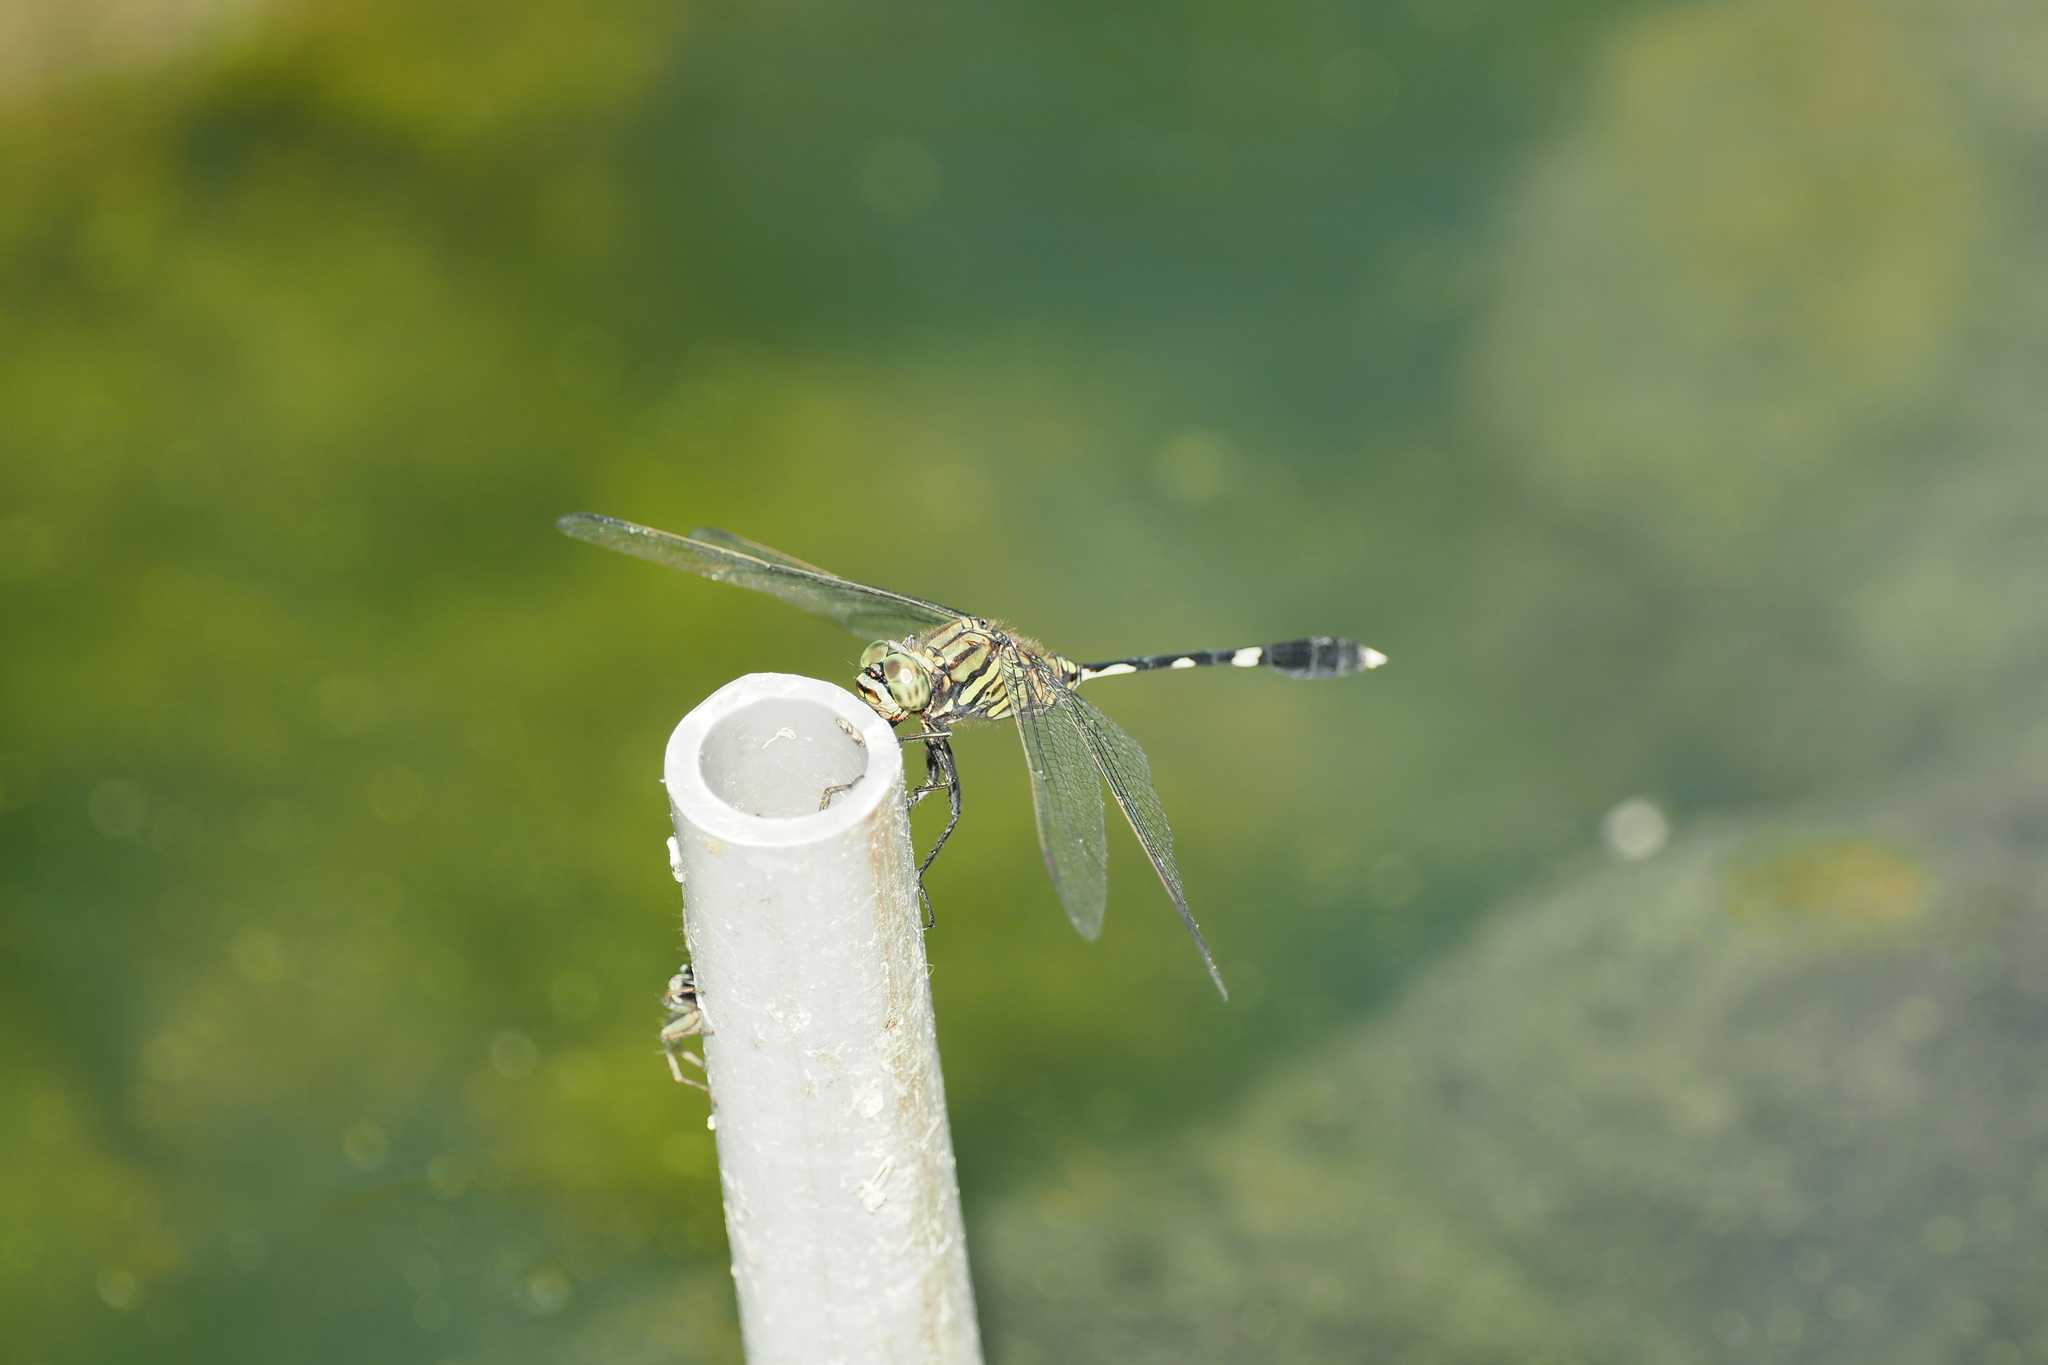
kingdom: Animalia
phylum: Arthropoda
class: Insecta
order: Odonata
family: Libellulidae
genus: Orthetrum
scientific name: Orthetrum sabina
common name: Slender skimmer
